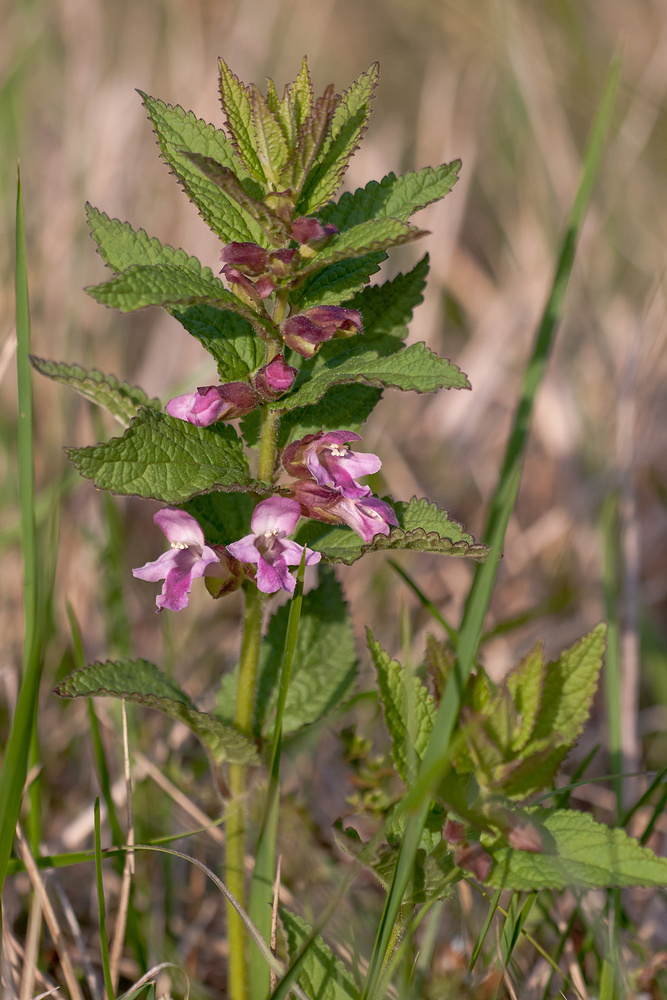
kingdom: Plantae
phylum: Tracheophyta
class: Magnoliopsida
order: Lamiales
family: Lamiaceae
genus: Melittis
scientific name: Melittis melissophyllum
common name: Bastard balm
